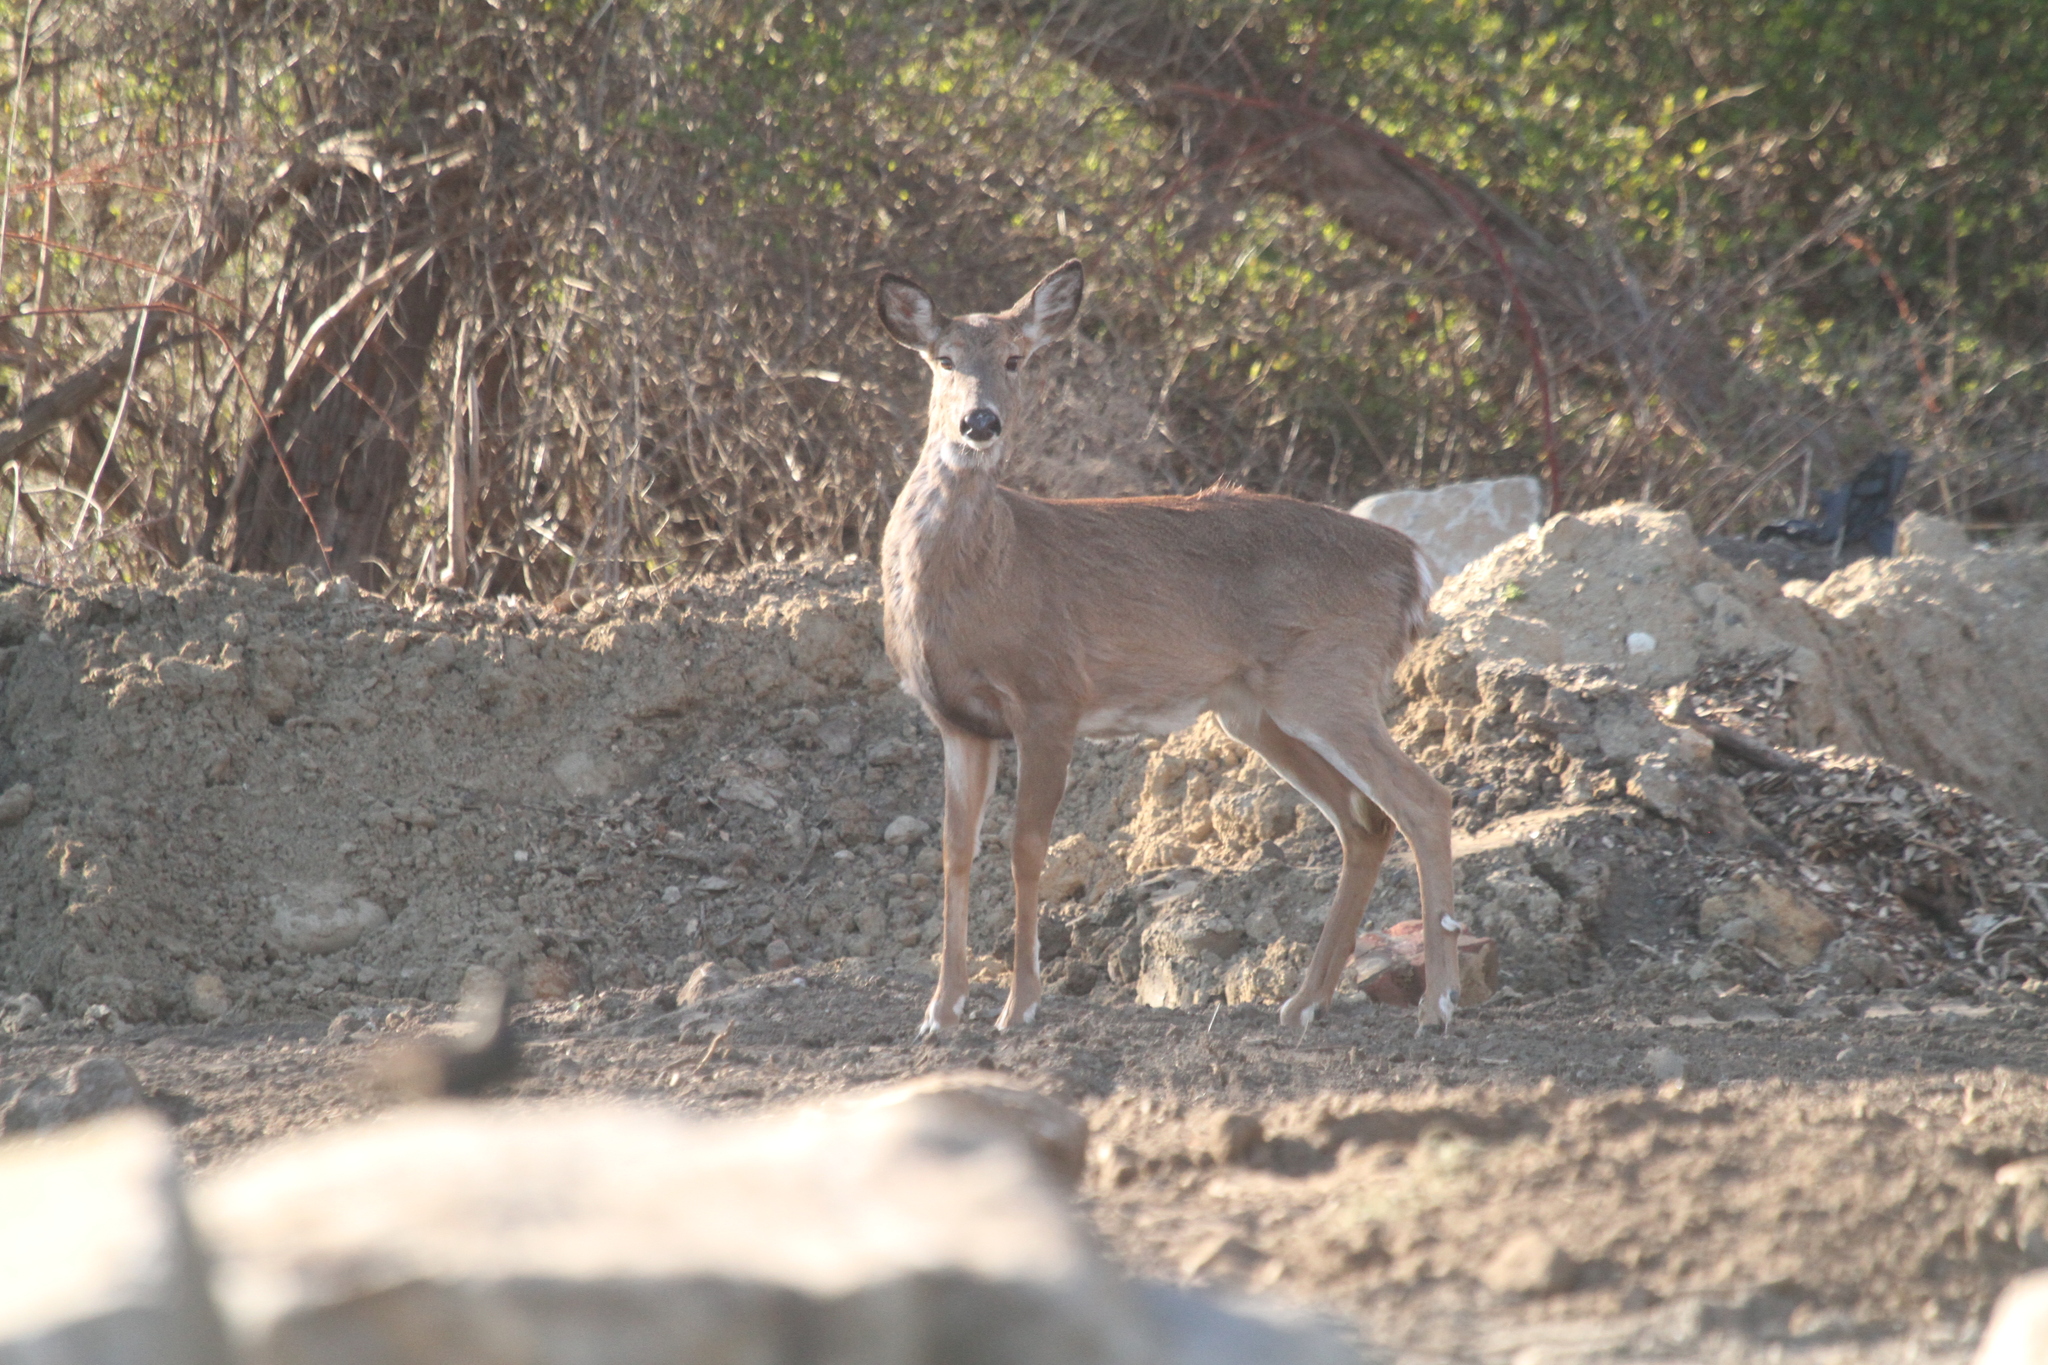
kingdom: Animalia
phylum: Chordata
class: Mammalia
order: Artiodactyla
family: Cervidae
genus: Odocoileus
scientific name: Odocoileus virginianus
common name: White-tailed deer
